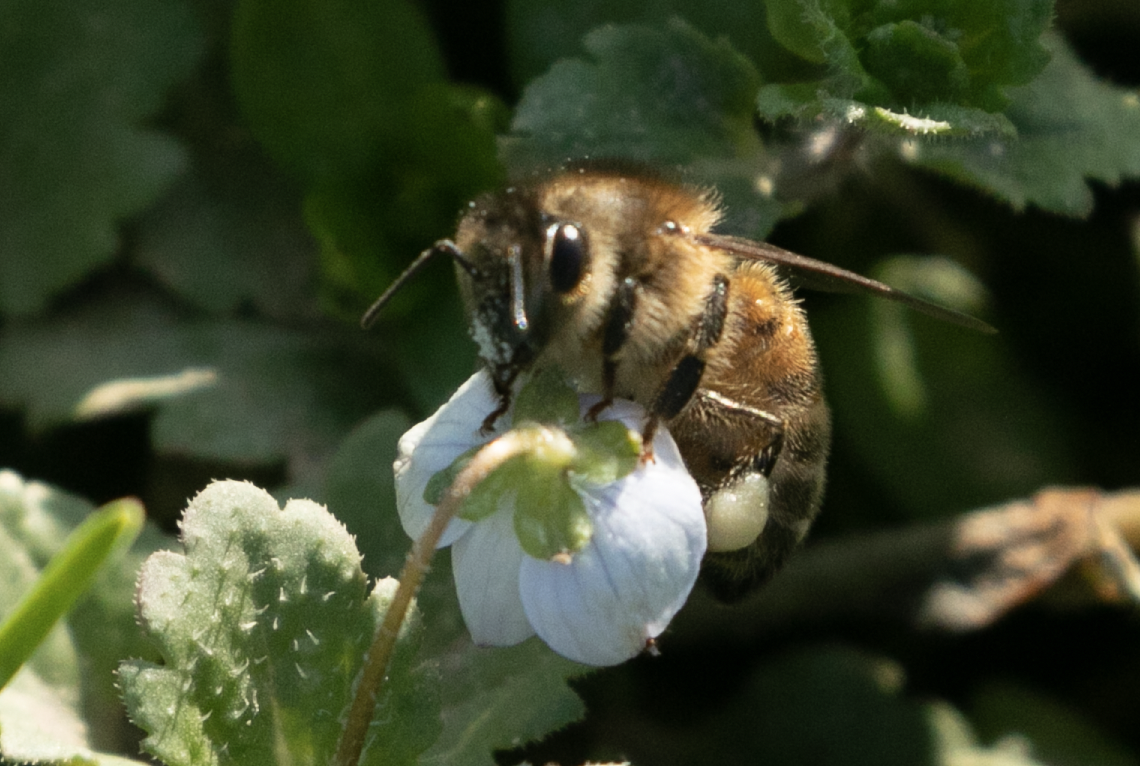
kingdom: Animalia
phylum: Arthropoda
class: Insecta
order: Hymenoptera
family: Apidae
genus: Apis
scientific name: Apis mellifera
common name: Honey bee
